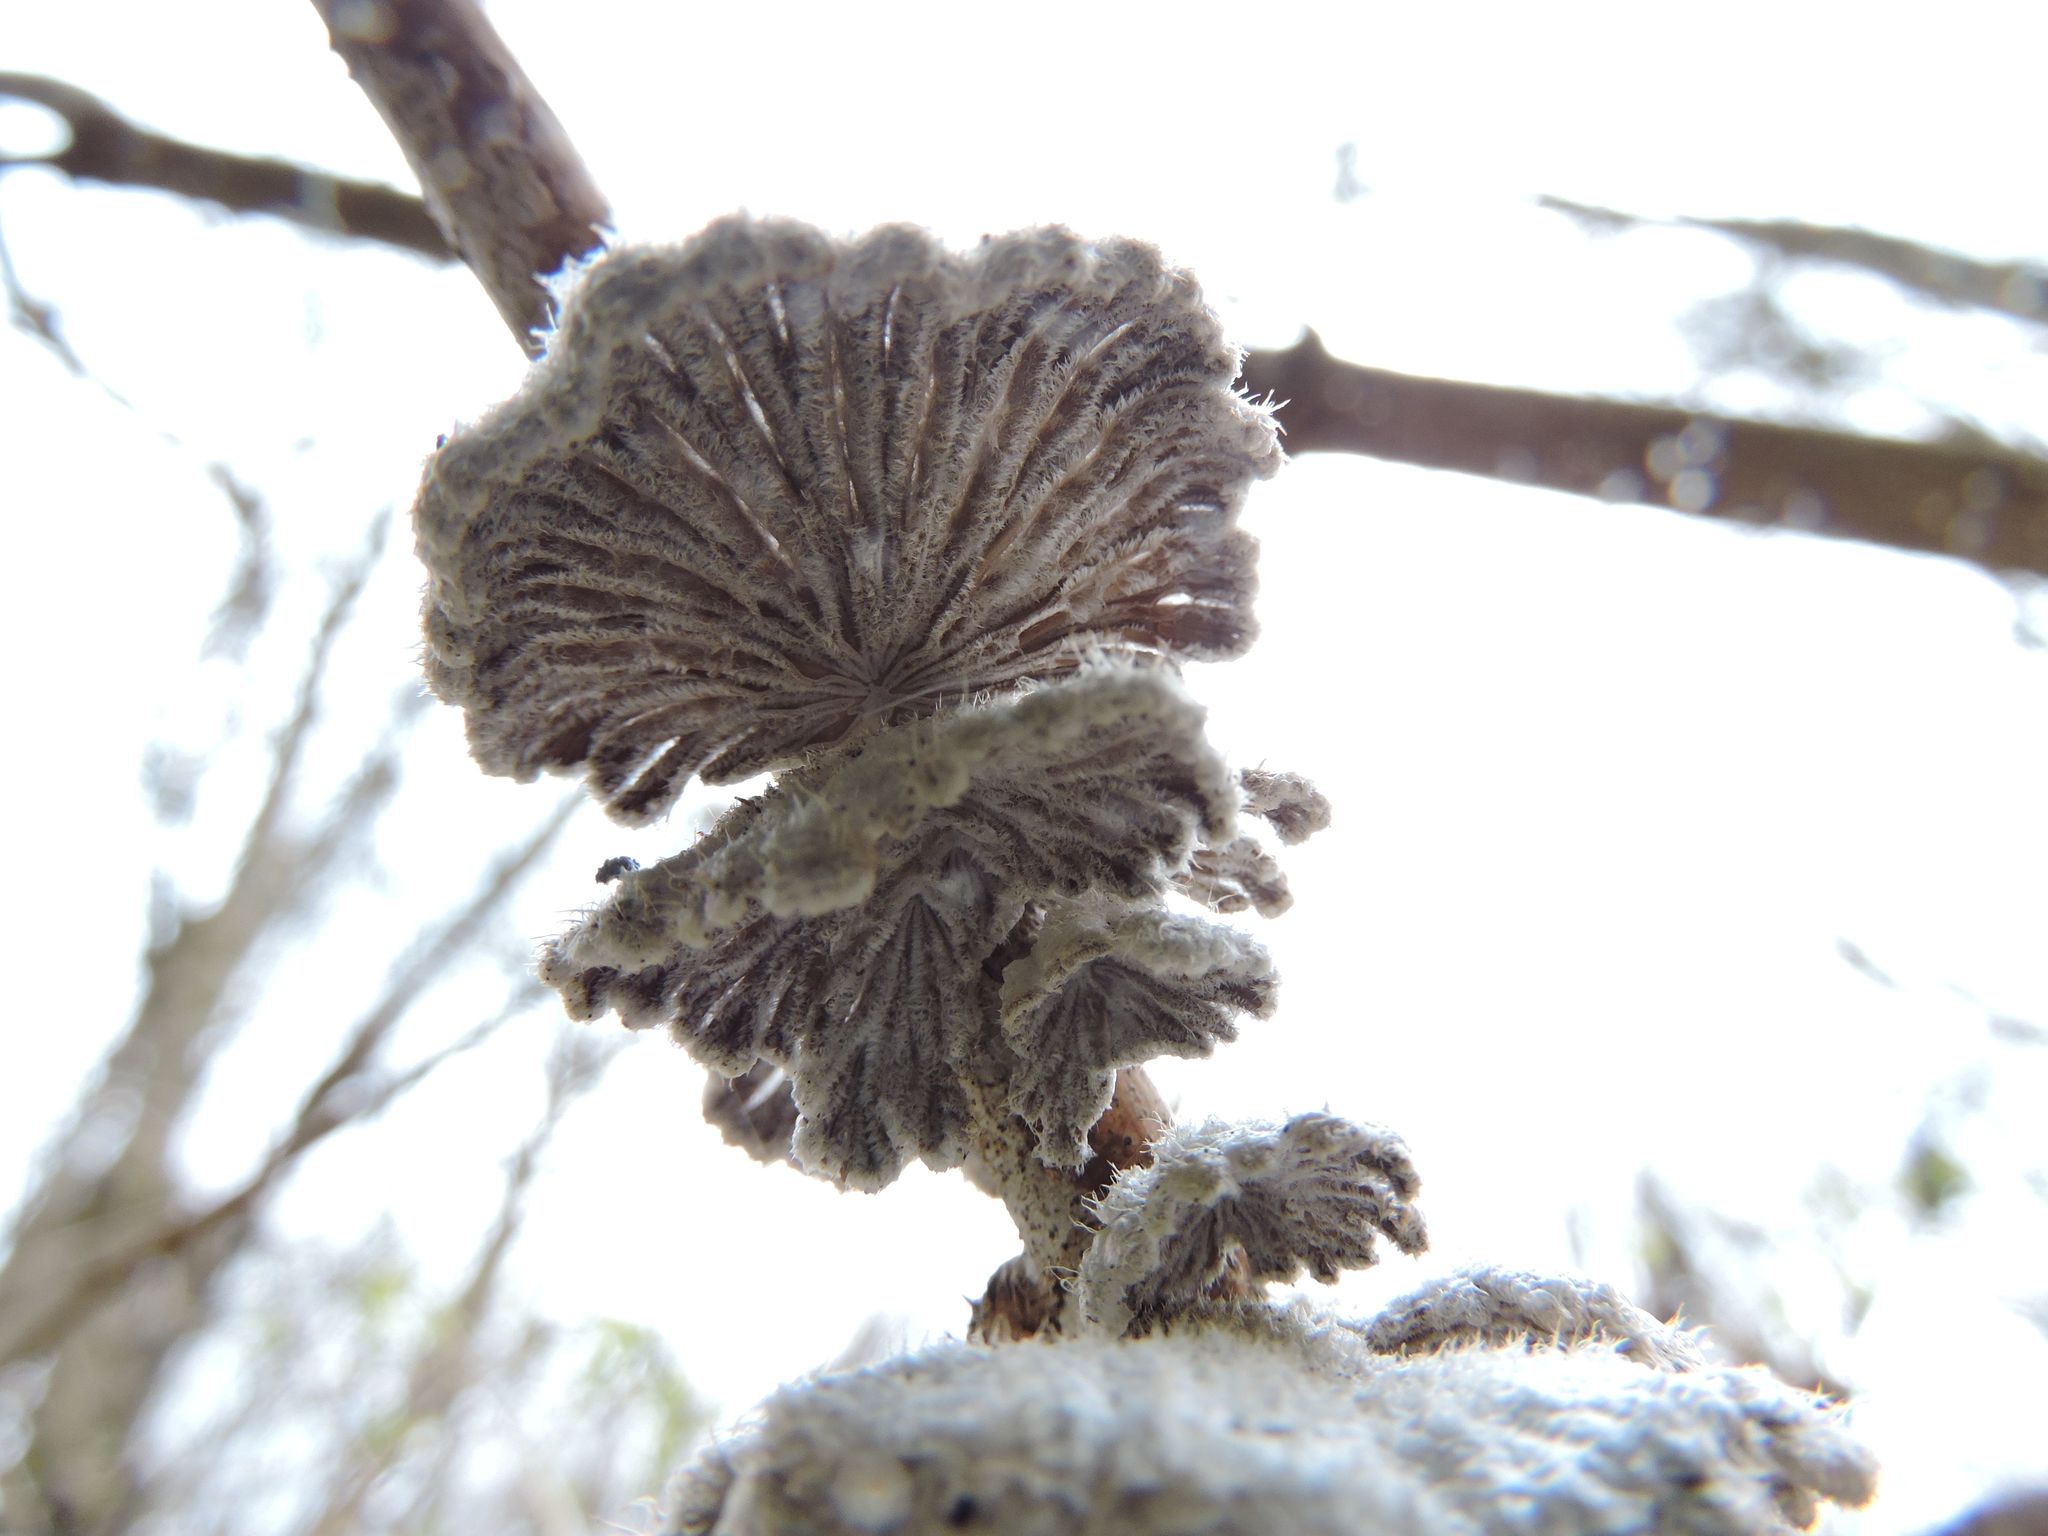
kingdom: Fungi
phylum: Basidiomycota
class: Agaricomycetes
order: Agaricales
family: Schizophyllaceae
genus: Schizophyllum
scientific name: Schizophyllum commune
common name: Common porecrust
